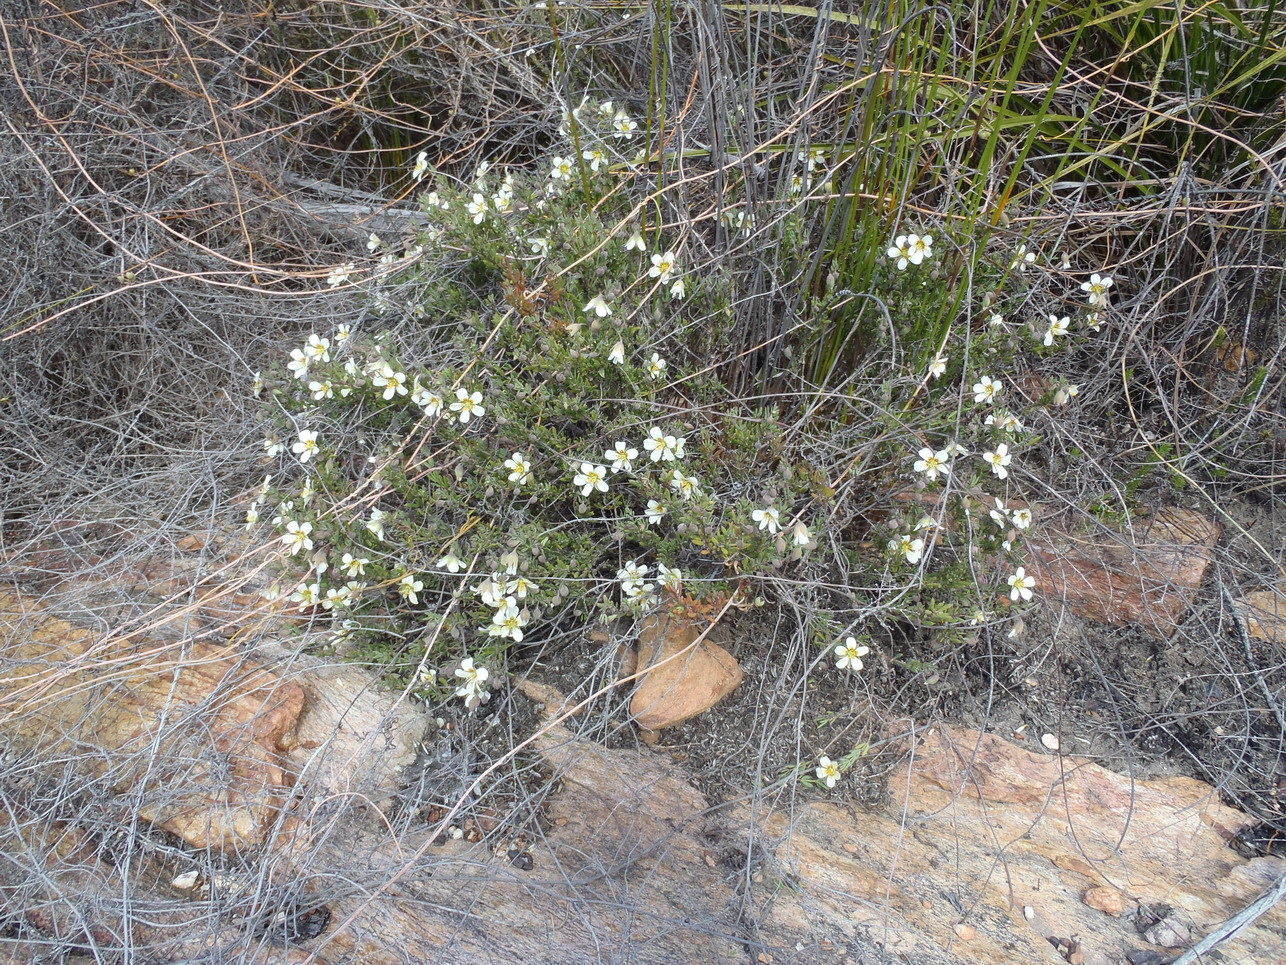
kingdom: Plantae
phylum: Tracheophyta
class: Magnoliopsida
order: Zygophyllales
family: Zygophyllaceae
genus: Roepera
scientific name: Roepera fulva
